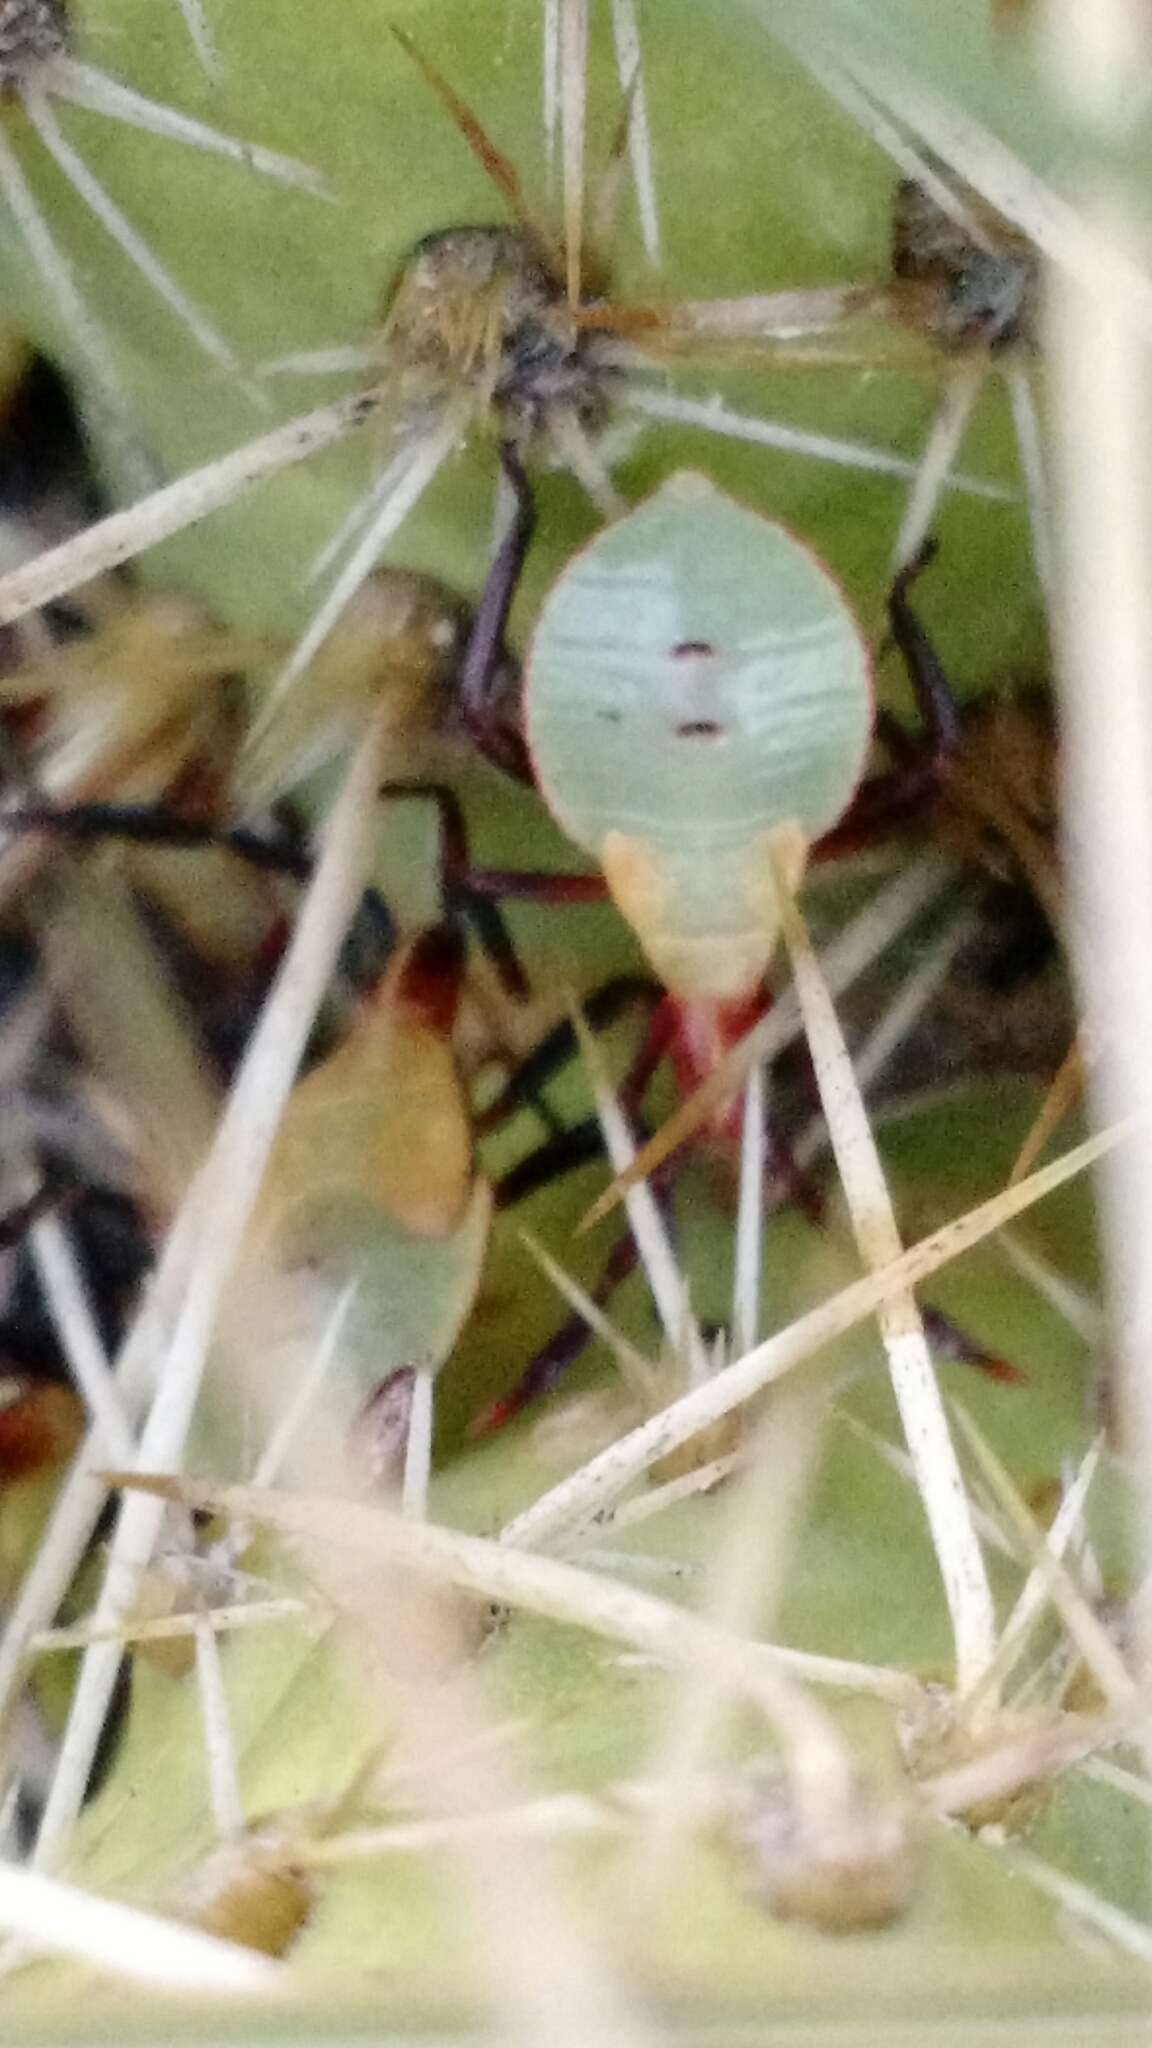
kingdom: Animalia
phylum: Arthropoda
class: Insecta
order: Hemiptera
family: Coreidae
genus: Chelinidea
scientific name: Chelinidea vittiger
